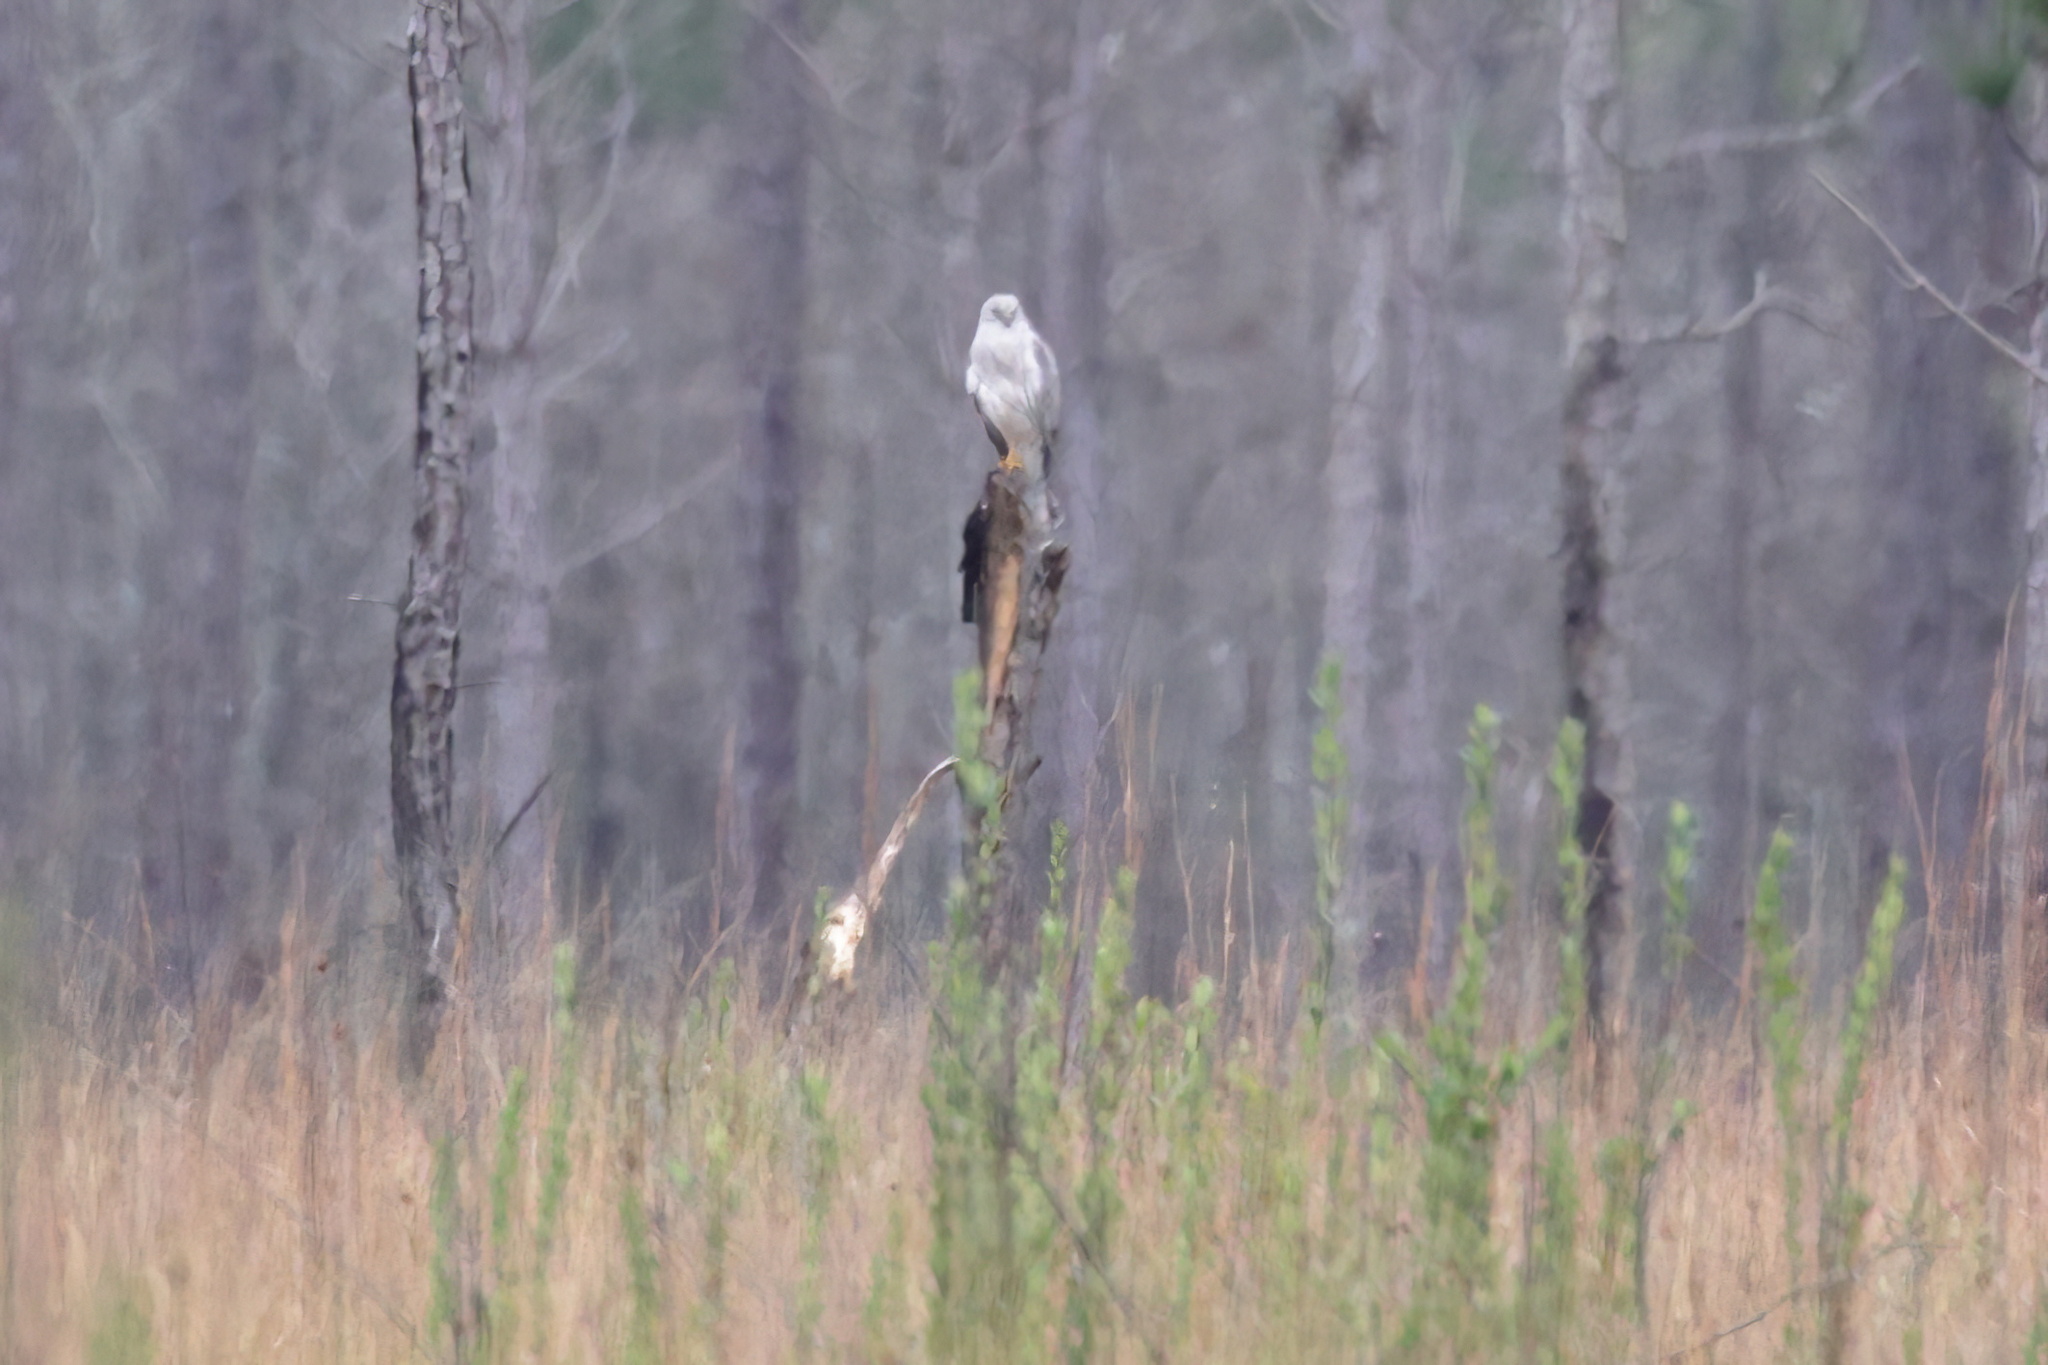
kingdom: Animalia
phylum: Chordata
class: Aves
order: Accipitriformes
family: Accipitridae
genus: Circus
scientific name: Circus cyaneus
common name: Hen harrier
